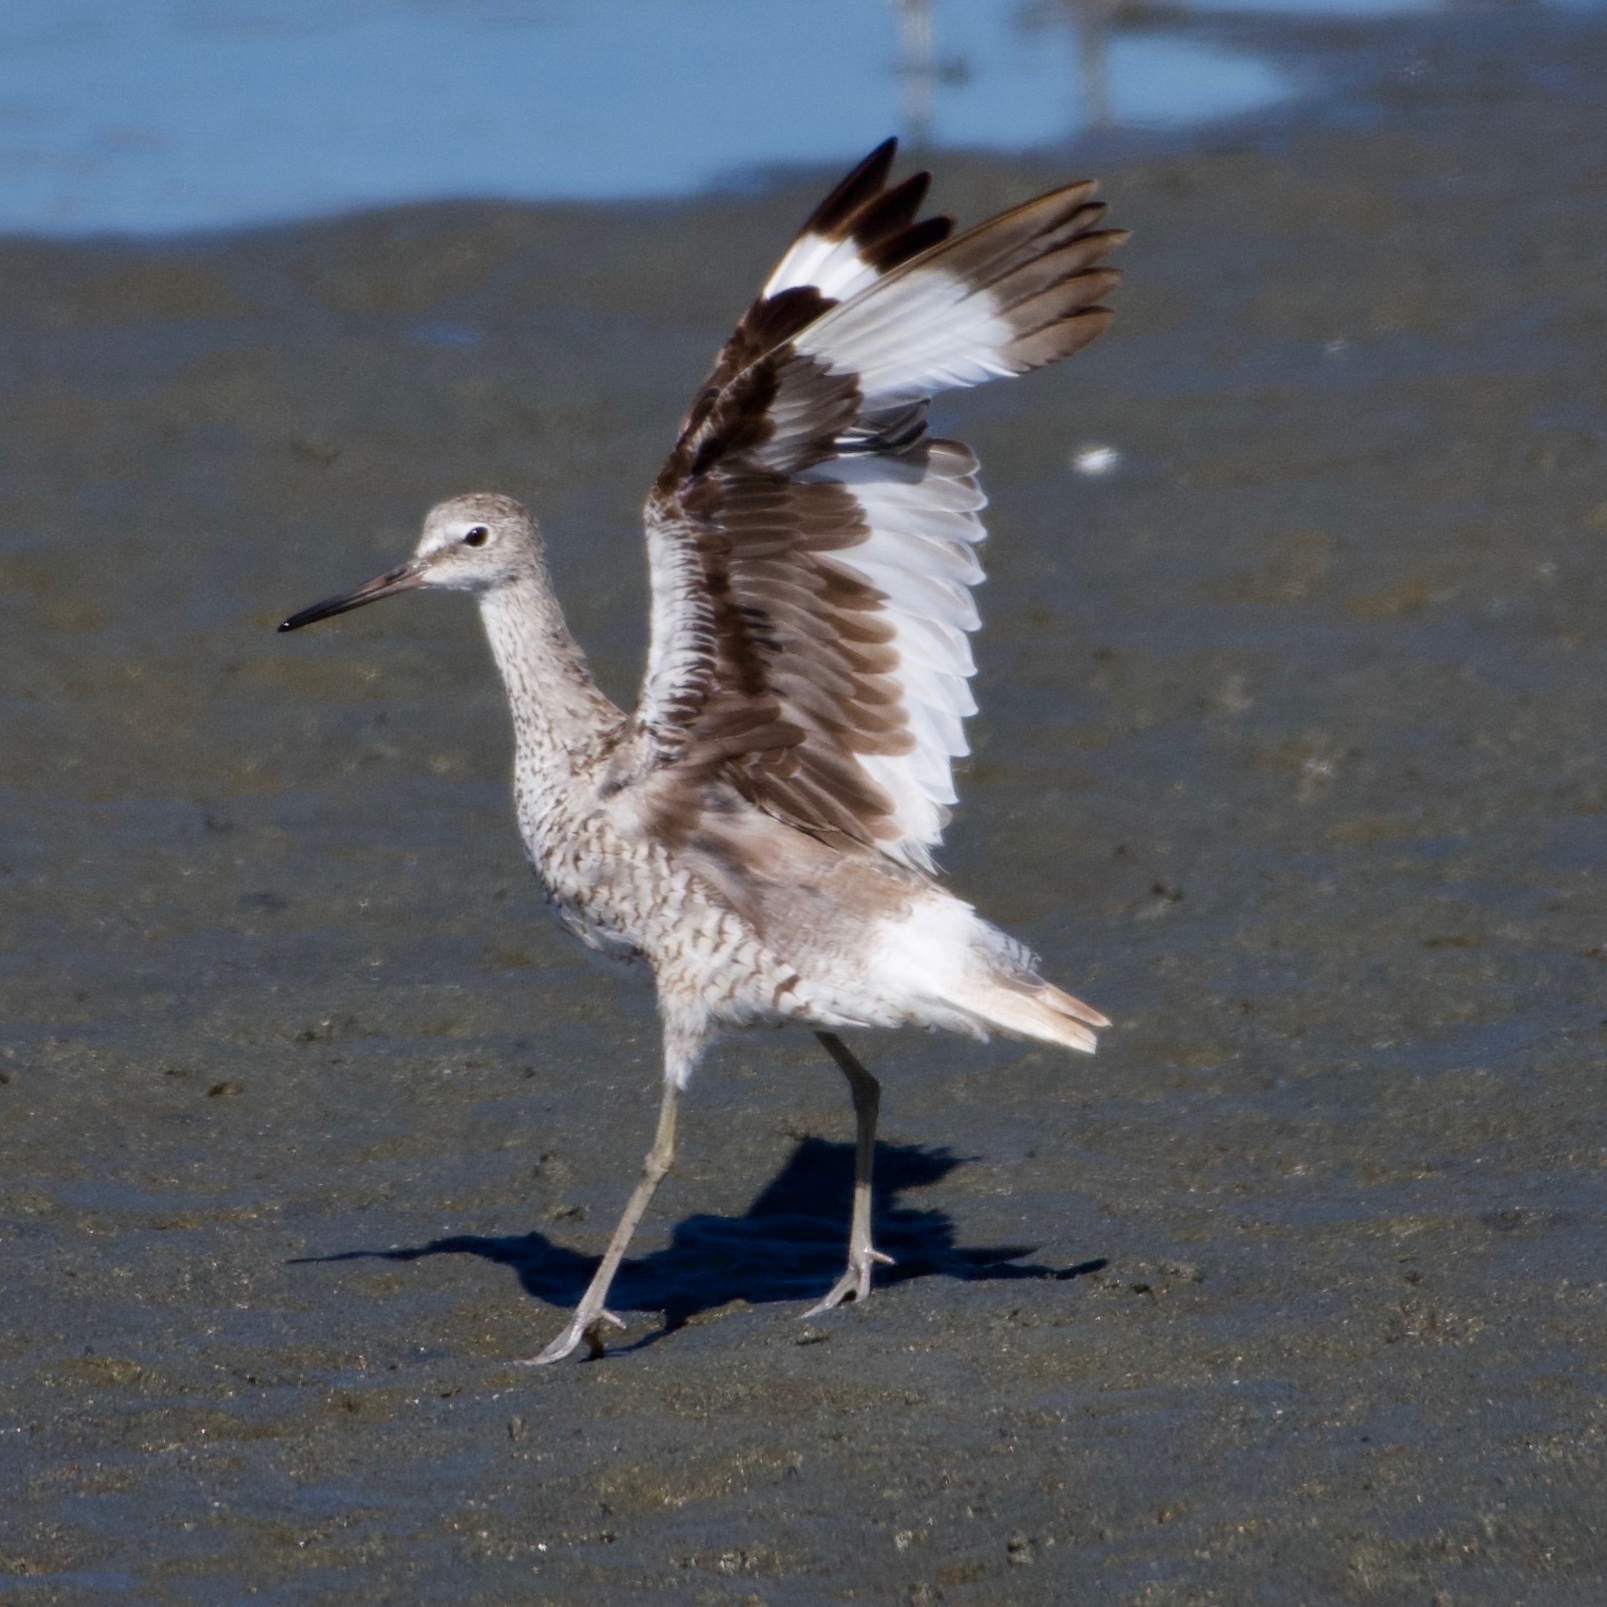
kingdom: Animalia
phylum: Chordata
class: Aves
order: Charadriiformes
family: Scolopacidae
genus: Tringa
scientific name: Tringa semipalmata
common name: Willet
